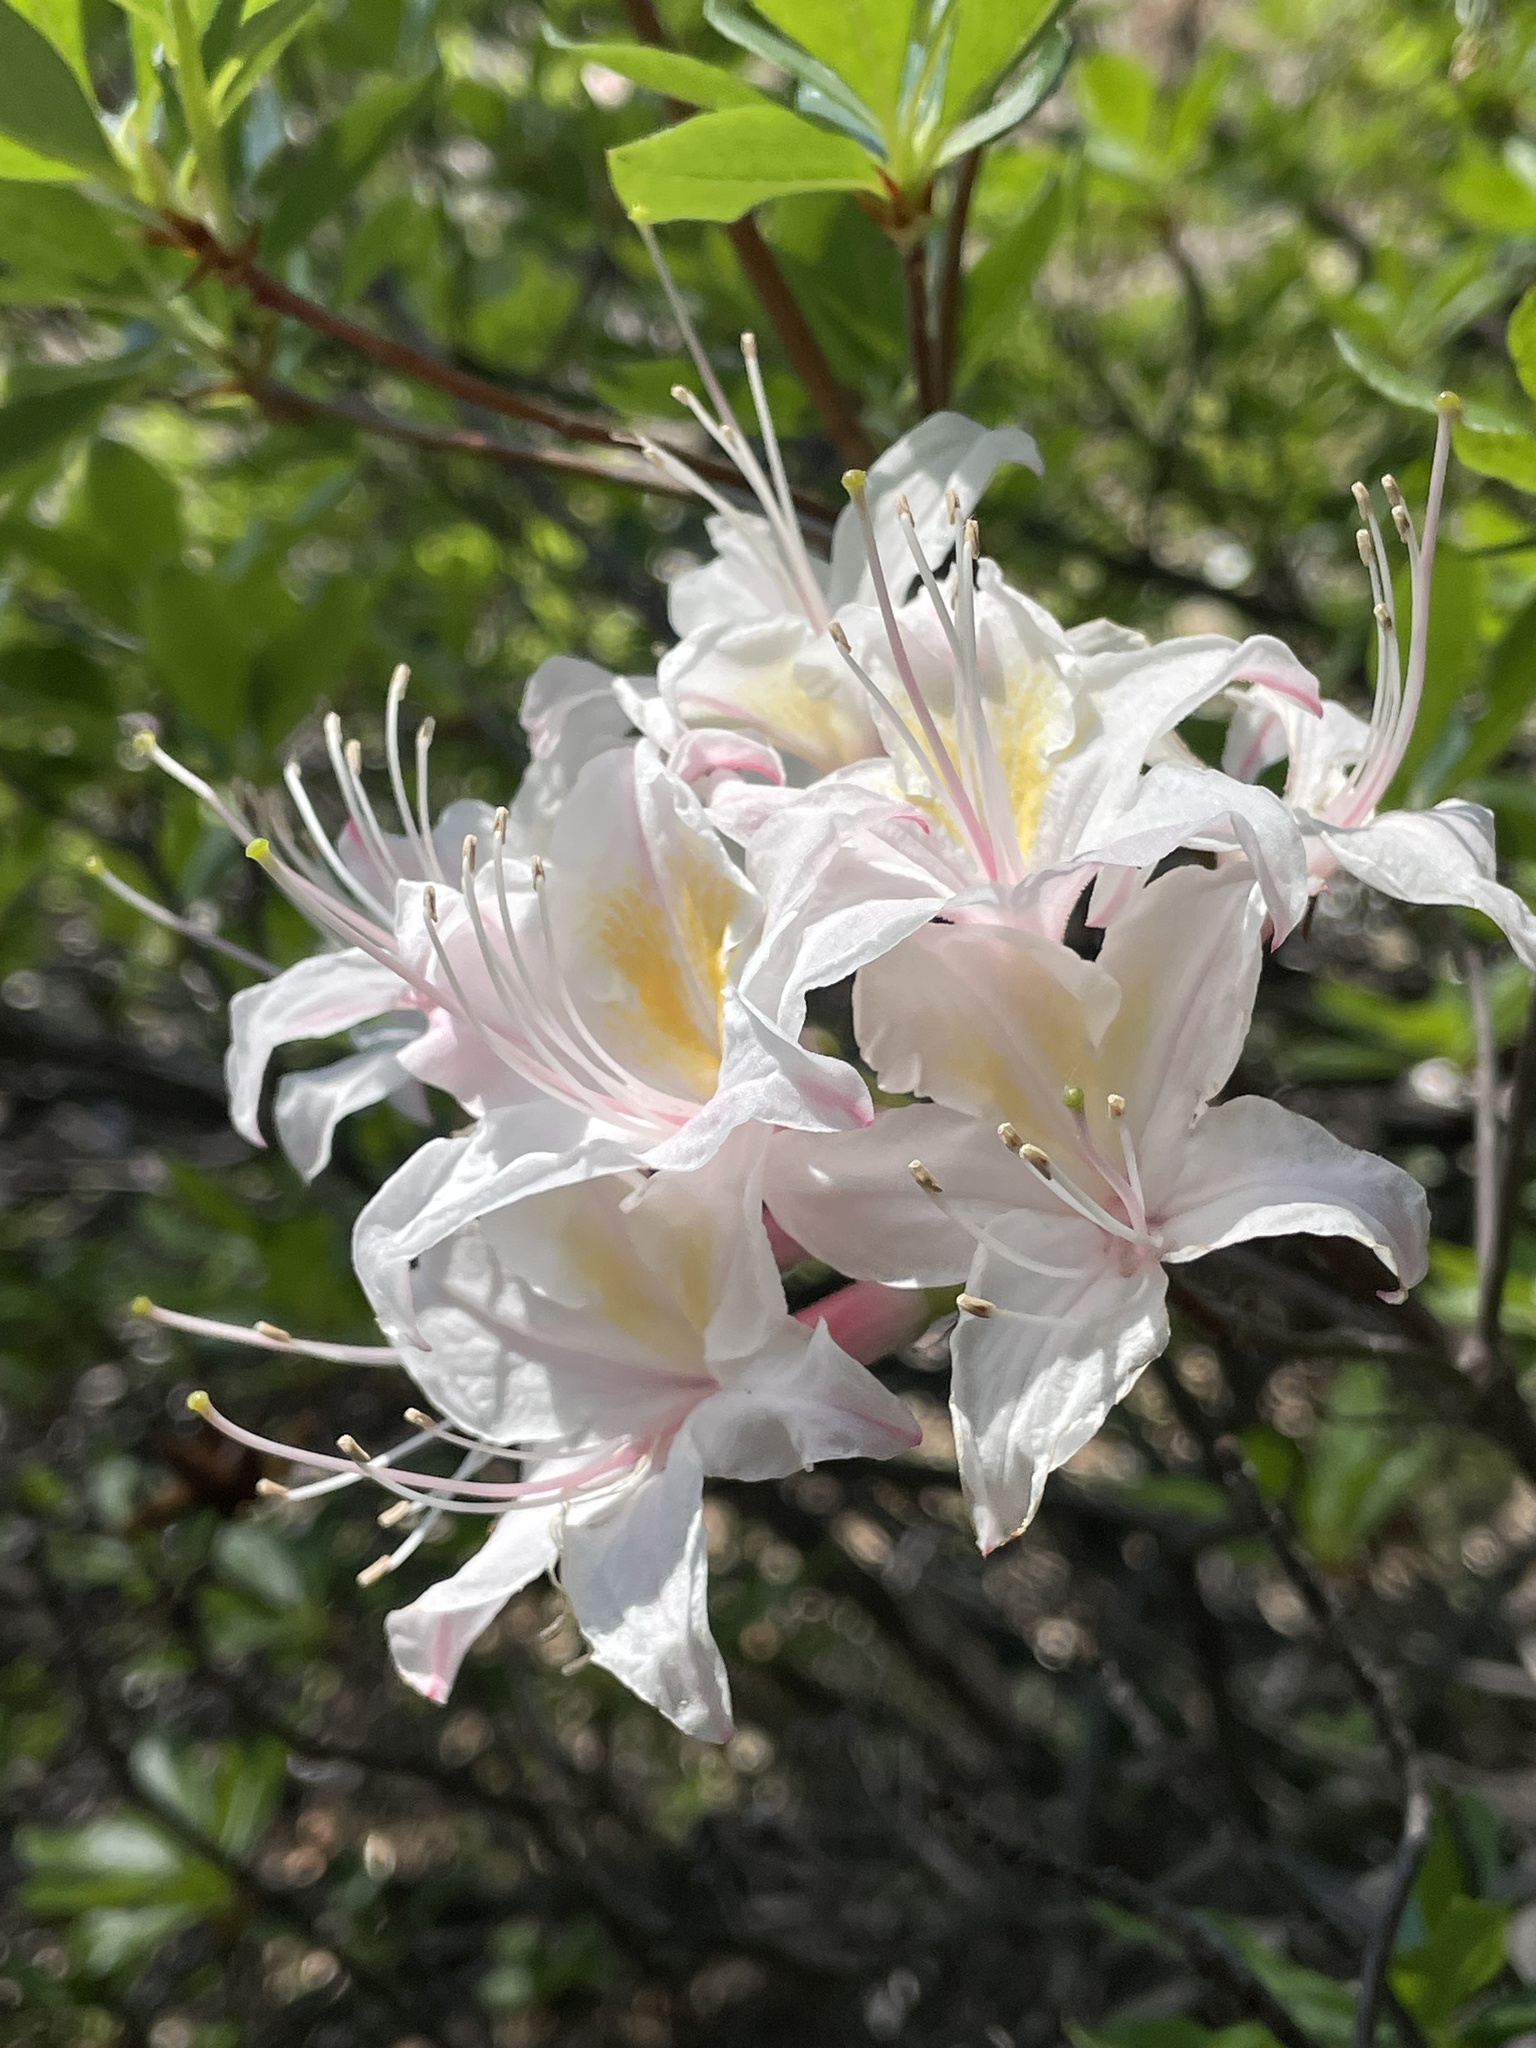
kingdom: Plantae
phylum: Tracheophyta
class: Magnoliopsida
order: Ericales
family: Ericaceae
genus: Rhododendron
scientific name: Rhododendron occidentale
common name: Western azalea
